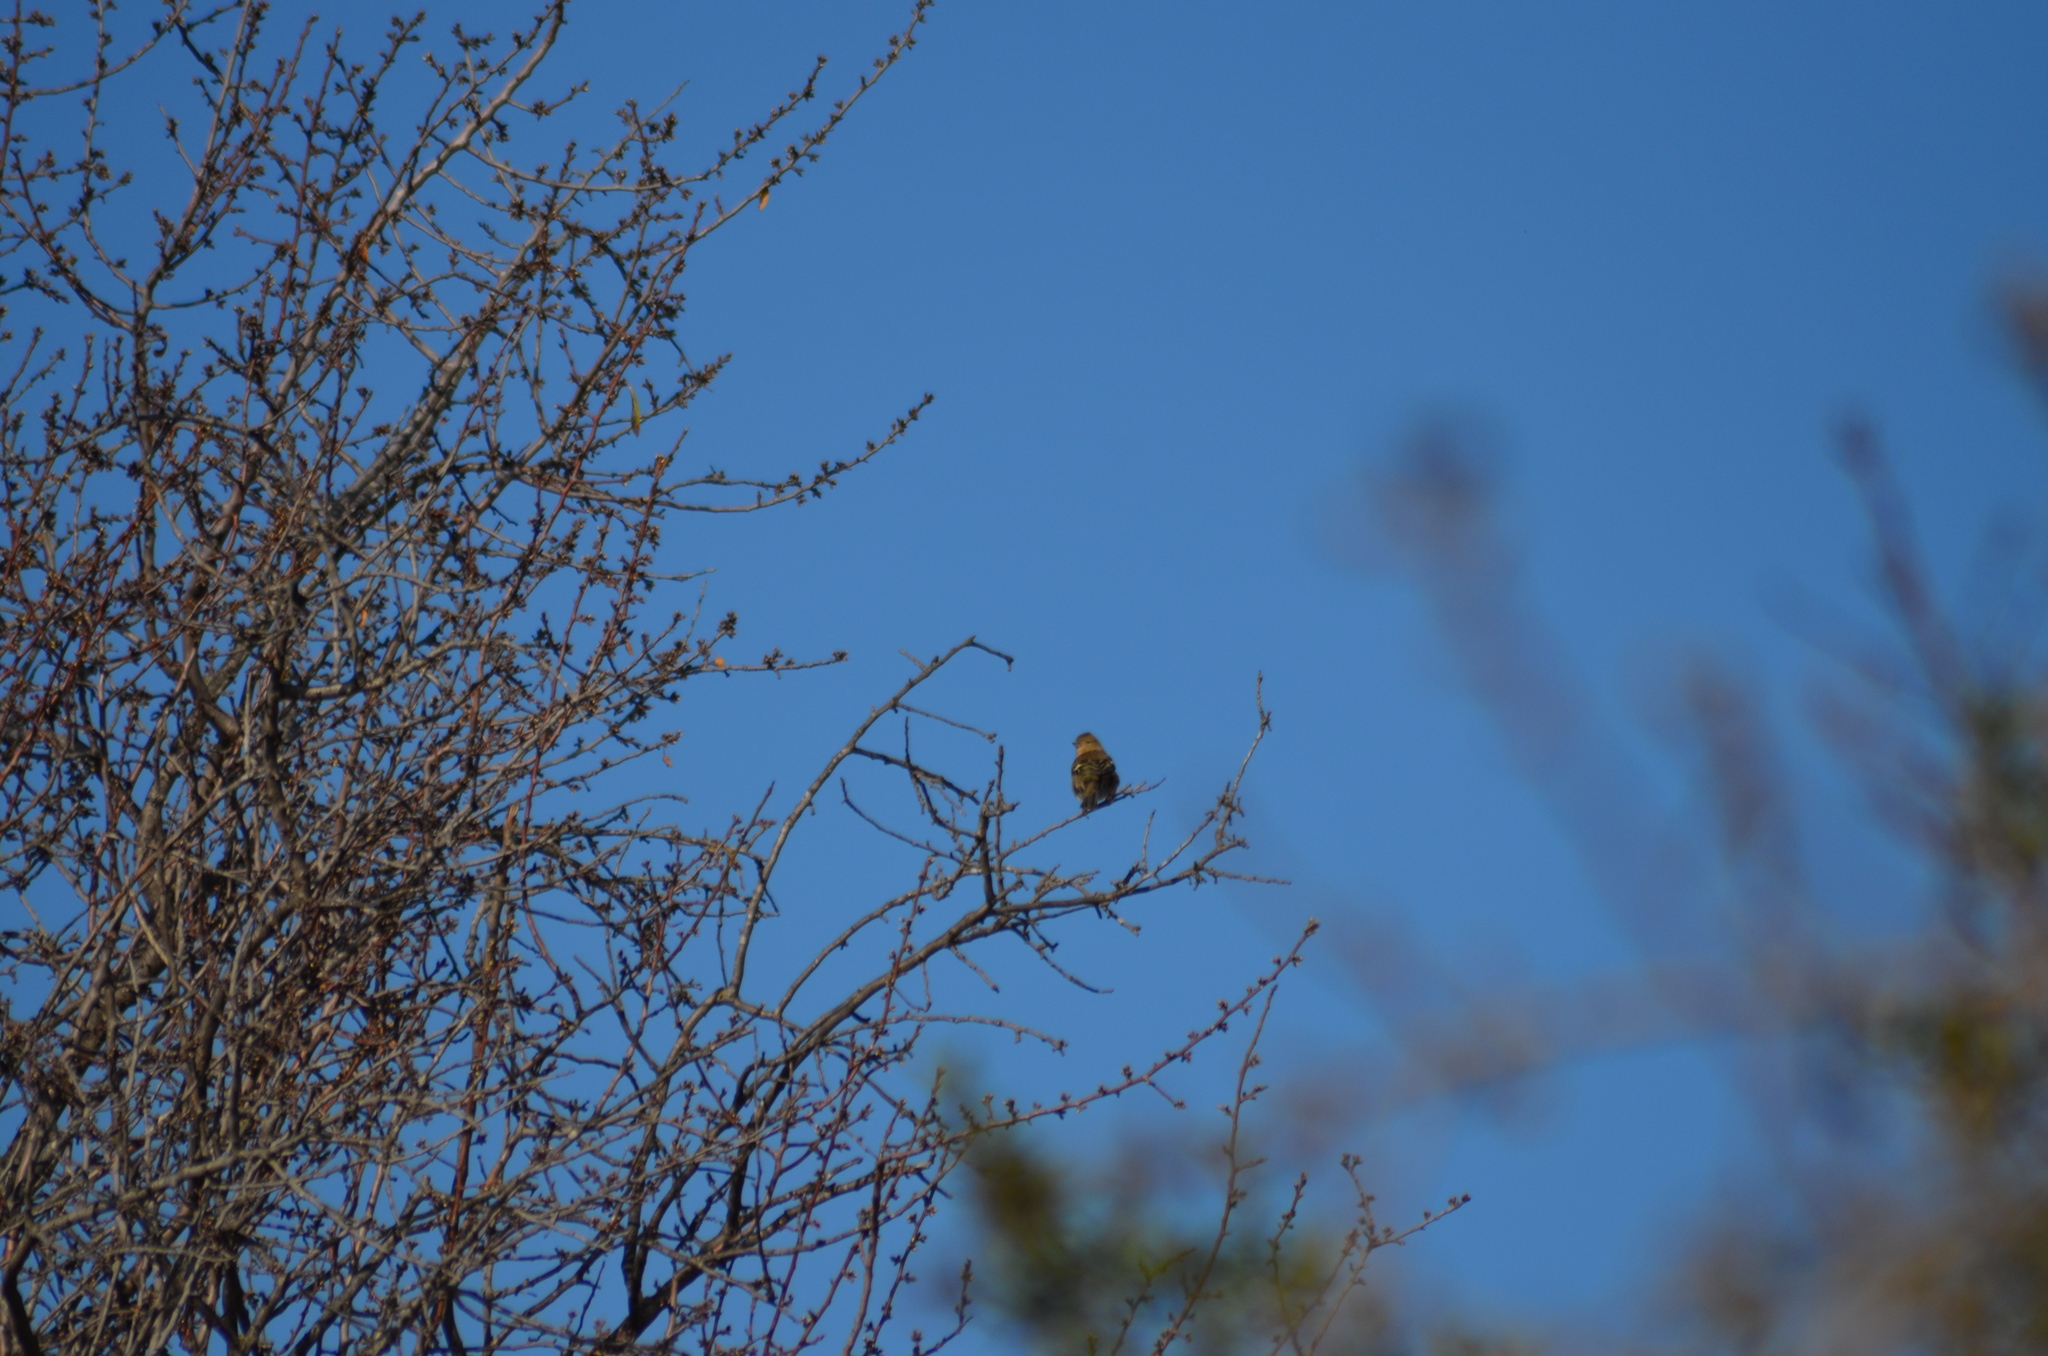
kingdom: Animalia
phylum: Chordata
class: Aves
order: Passeriformes
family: Fringillidae
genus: Fringilla
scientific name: Fringilla coelebs
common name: Common chaffinch
